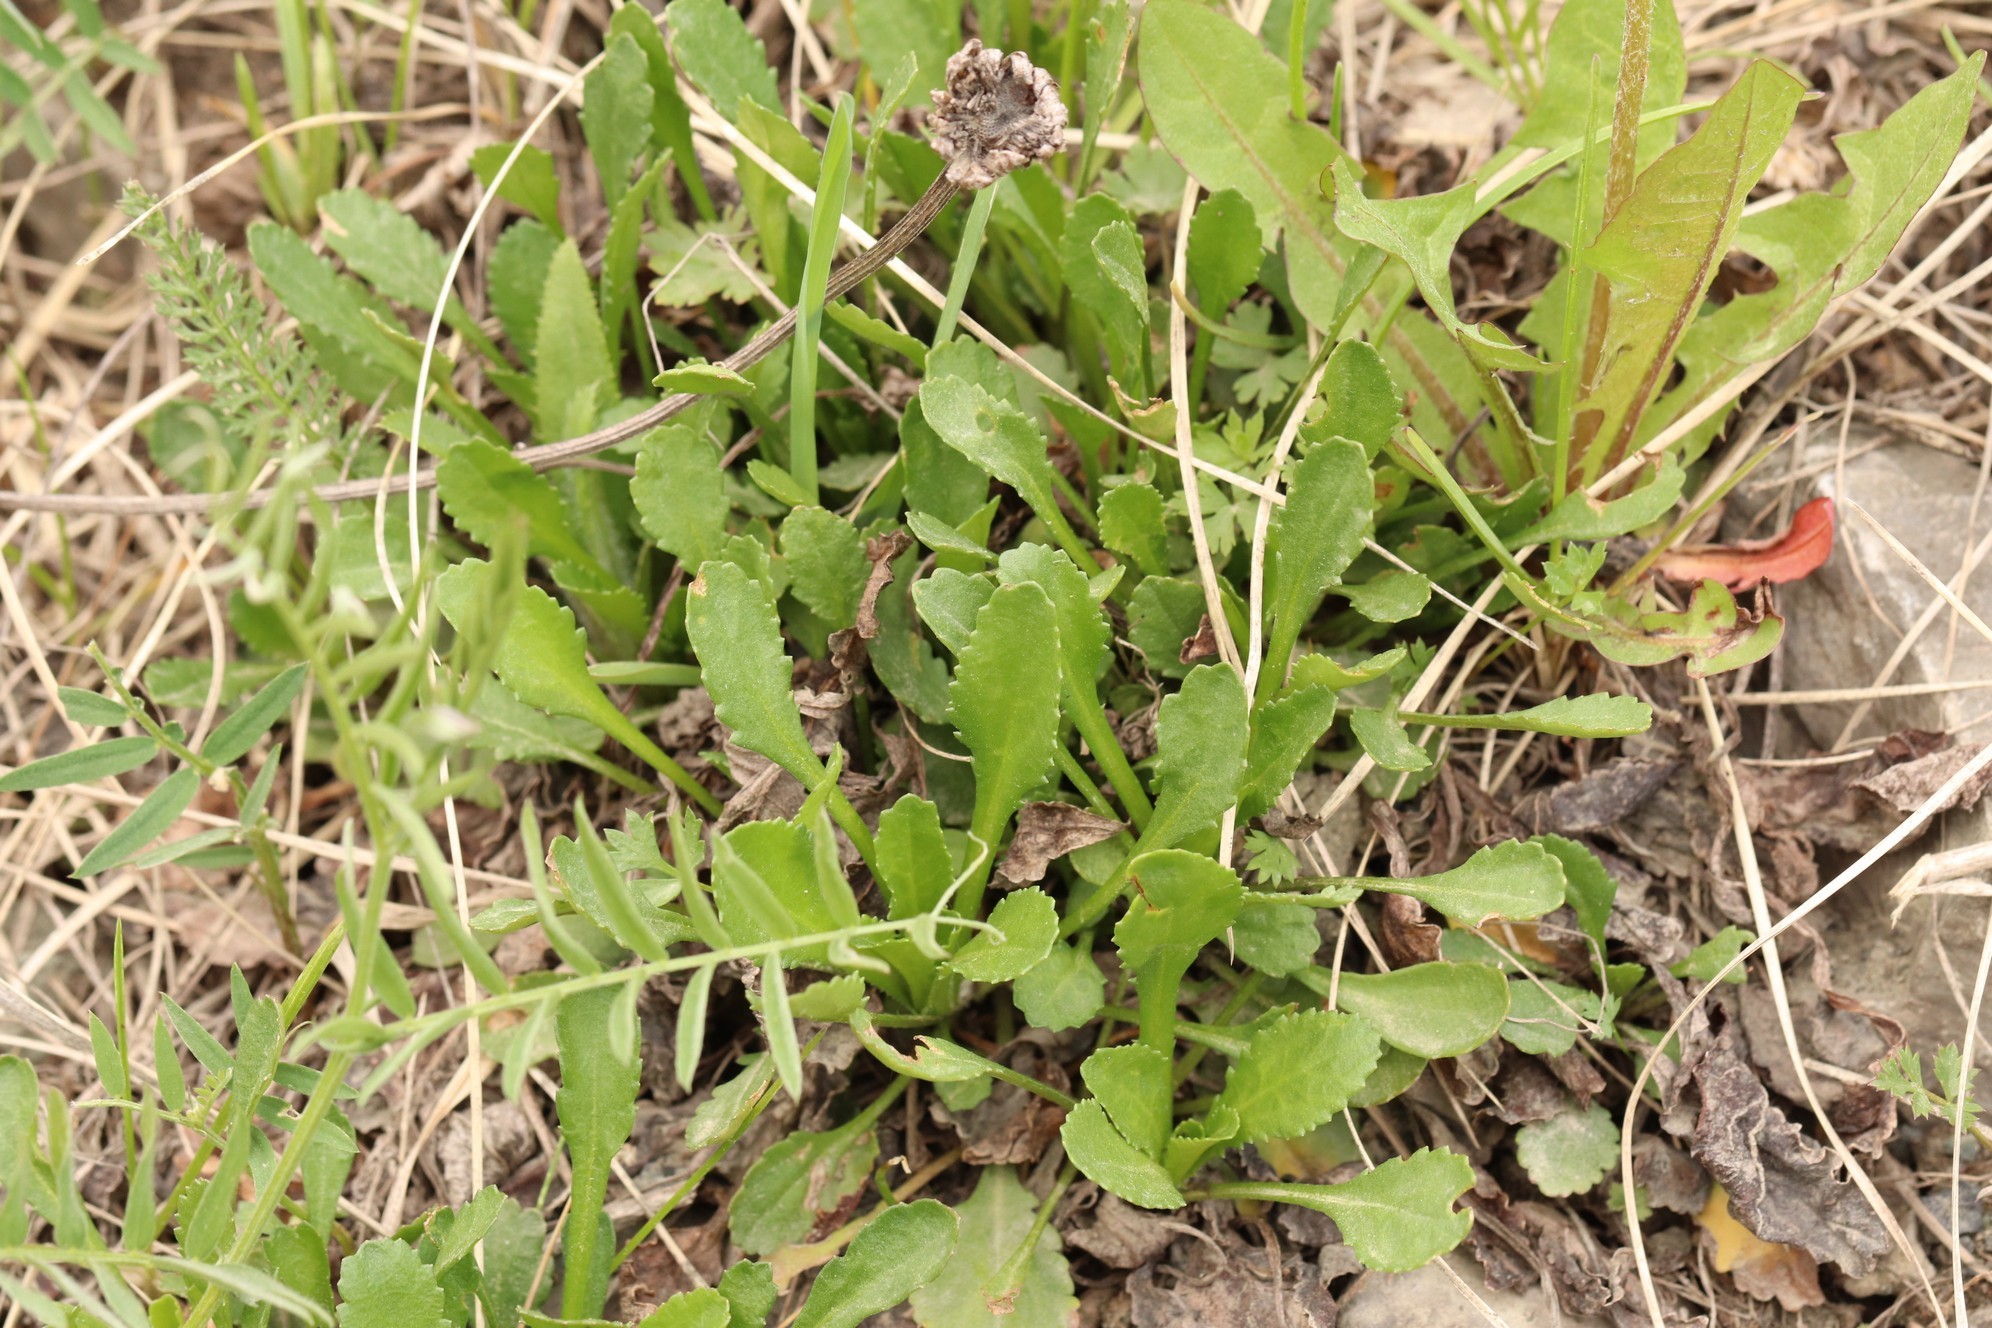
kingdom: Plantae
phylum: Tracheophyta
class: Magnoliopsida
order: Asterales
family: Asteraceae
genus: Leucanthemum
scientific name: Leucanthemum ircutianum
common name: Daisy
